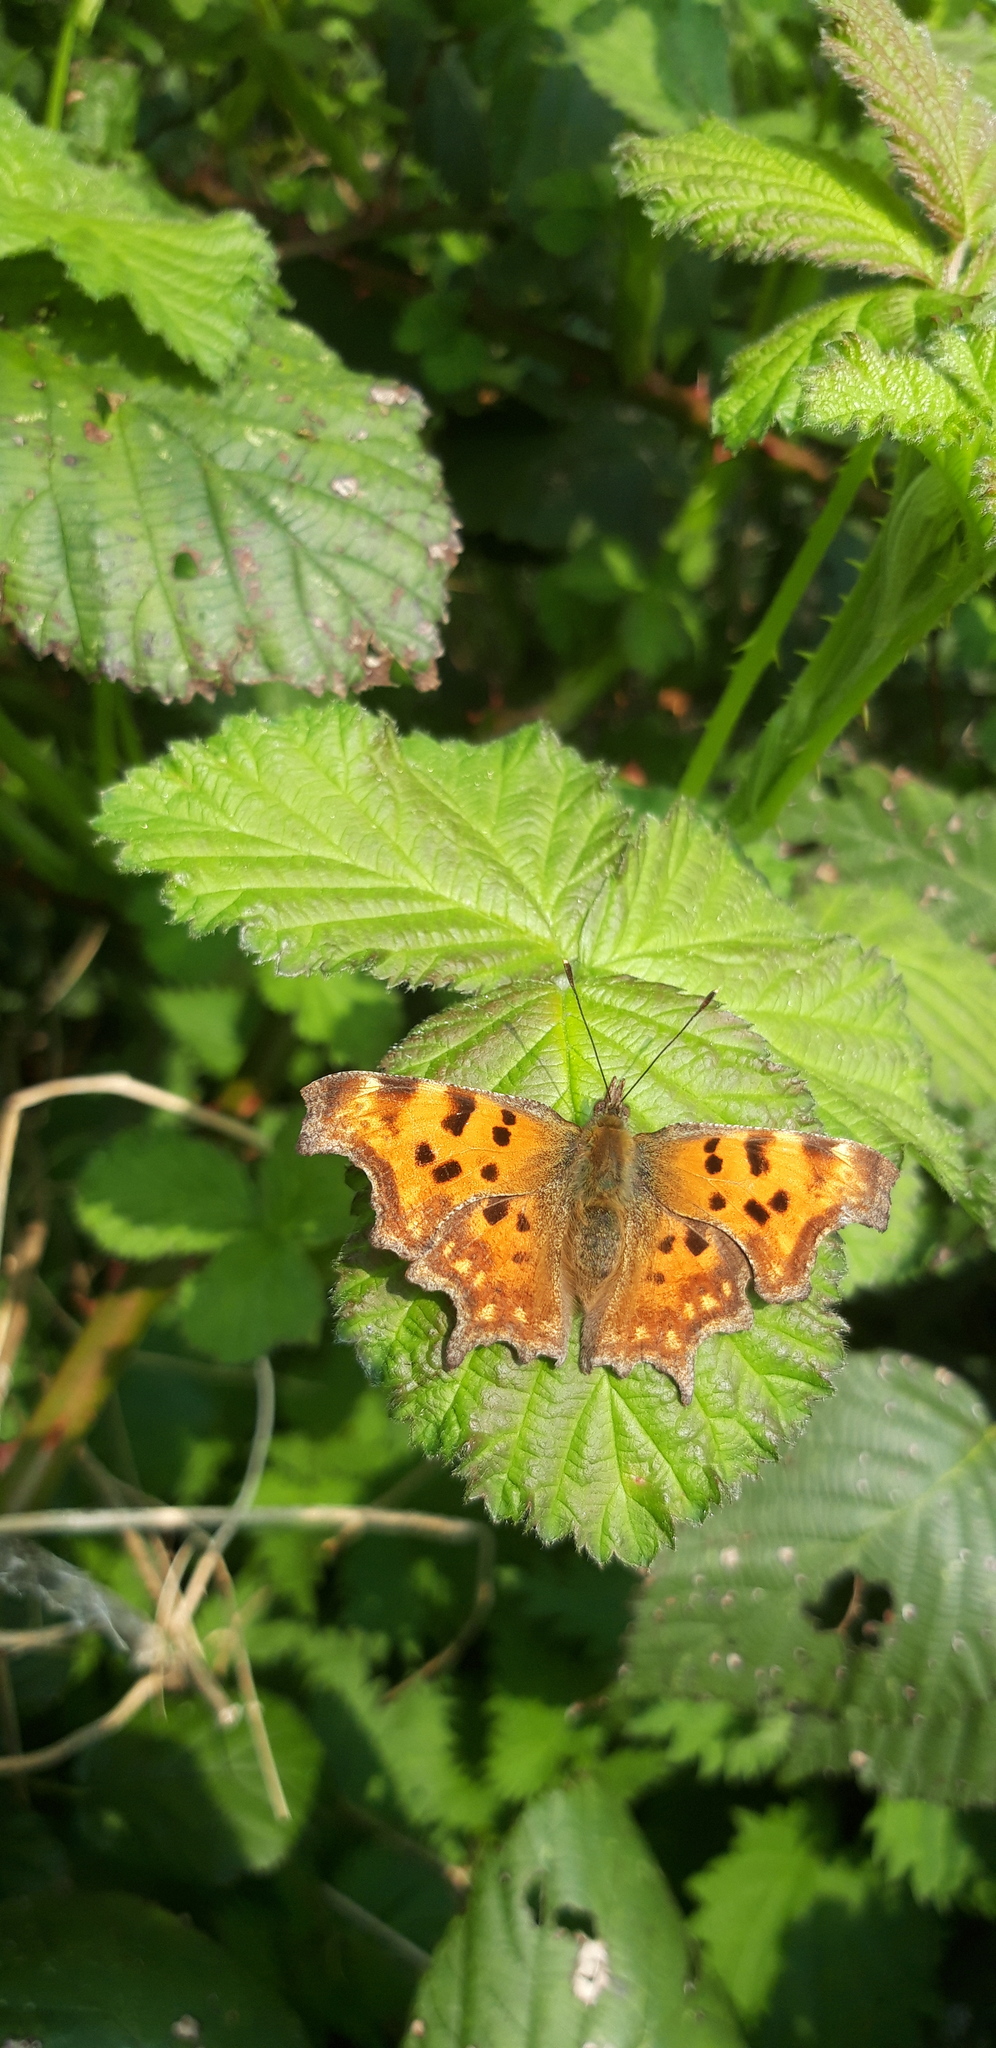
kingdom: Animalia
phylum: Arthropoda
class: Insecta
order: Lepidoptera
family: Nymphalidae
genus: Polygonia
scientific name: Polygonia c-album
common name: Comma
